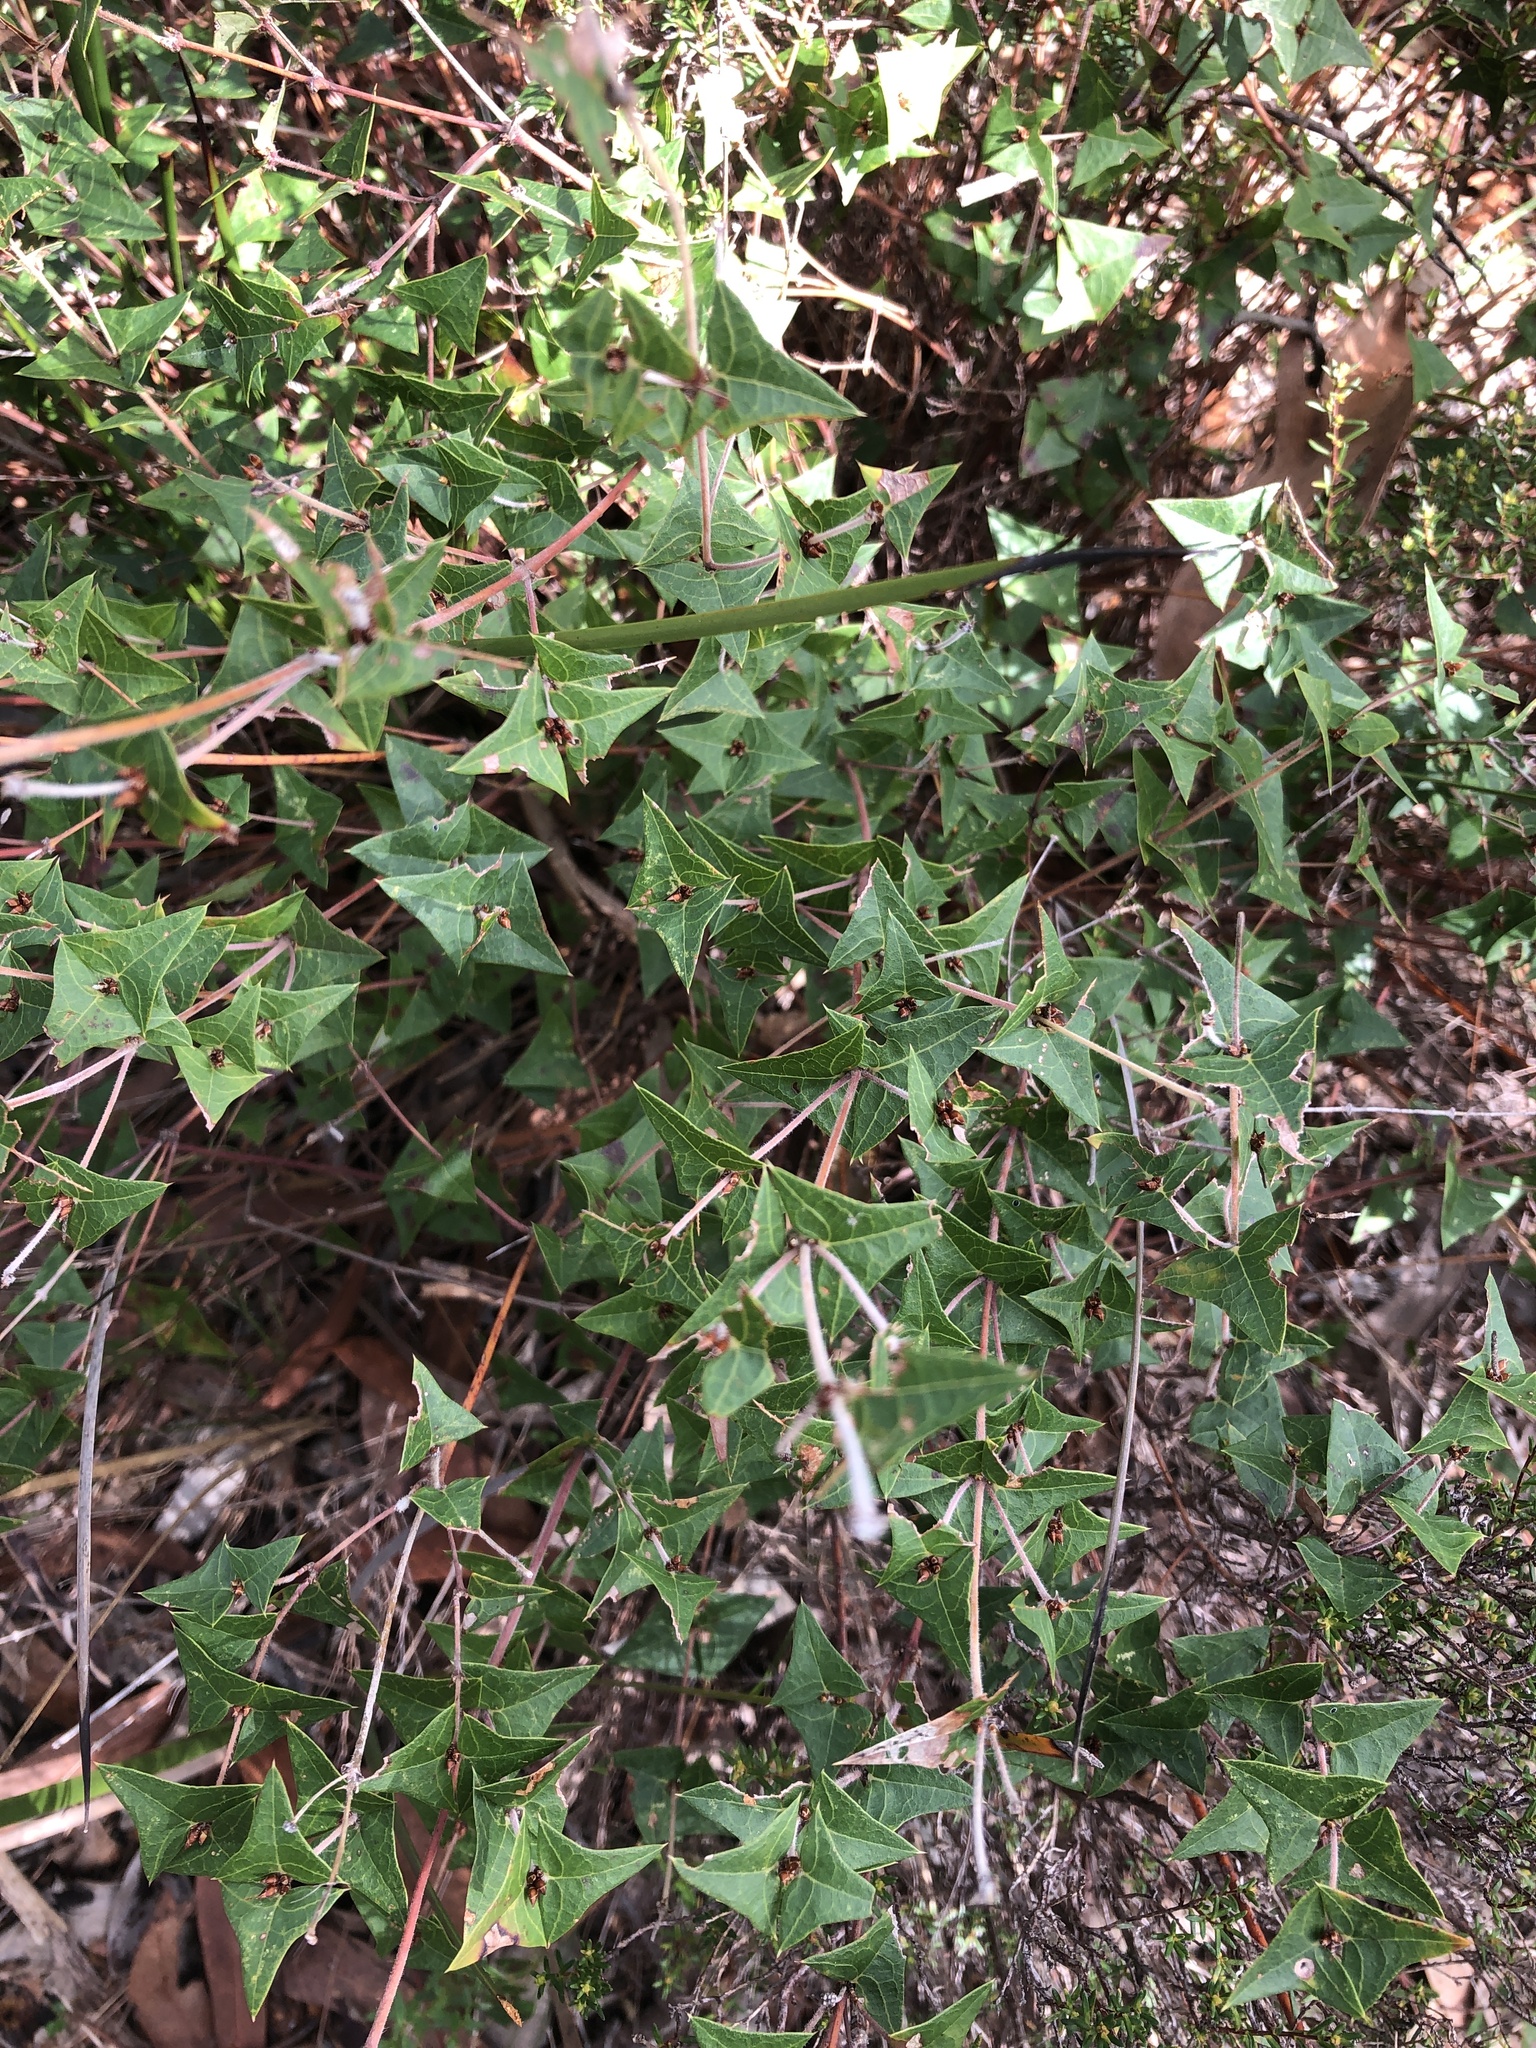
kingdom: Plantae
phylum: Tracheophyta
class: Magnoliopsida
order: Fabales
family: Fabaceae
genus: Platylobium
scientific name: Platylobium obtusangulum
